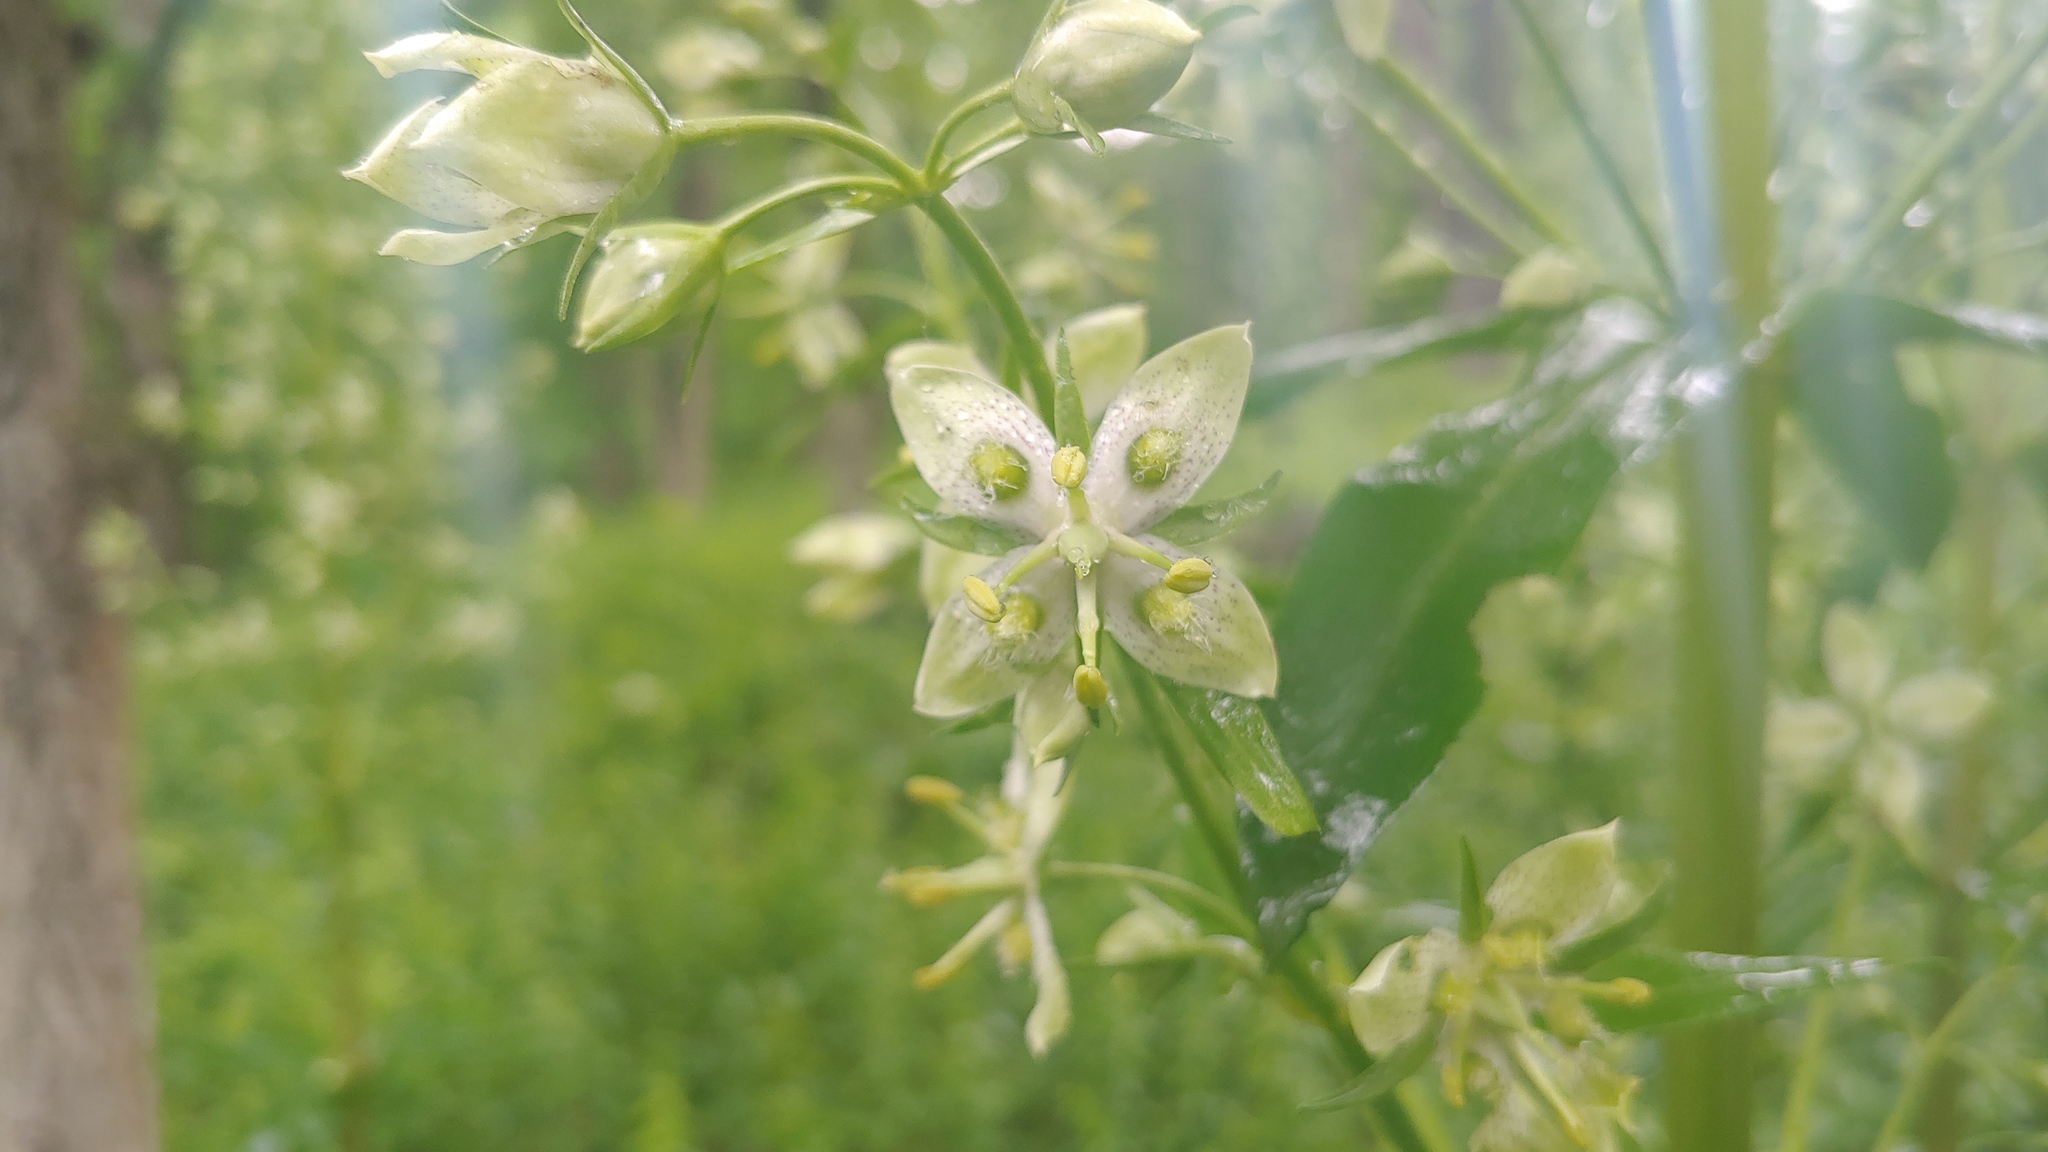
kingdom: Plantae
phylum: Tracheophyta
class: Magnoliopsida
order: Gentianales
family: Gentianaceae
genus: Frasera
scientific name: Frasera caroliniensis
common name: American columbo
